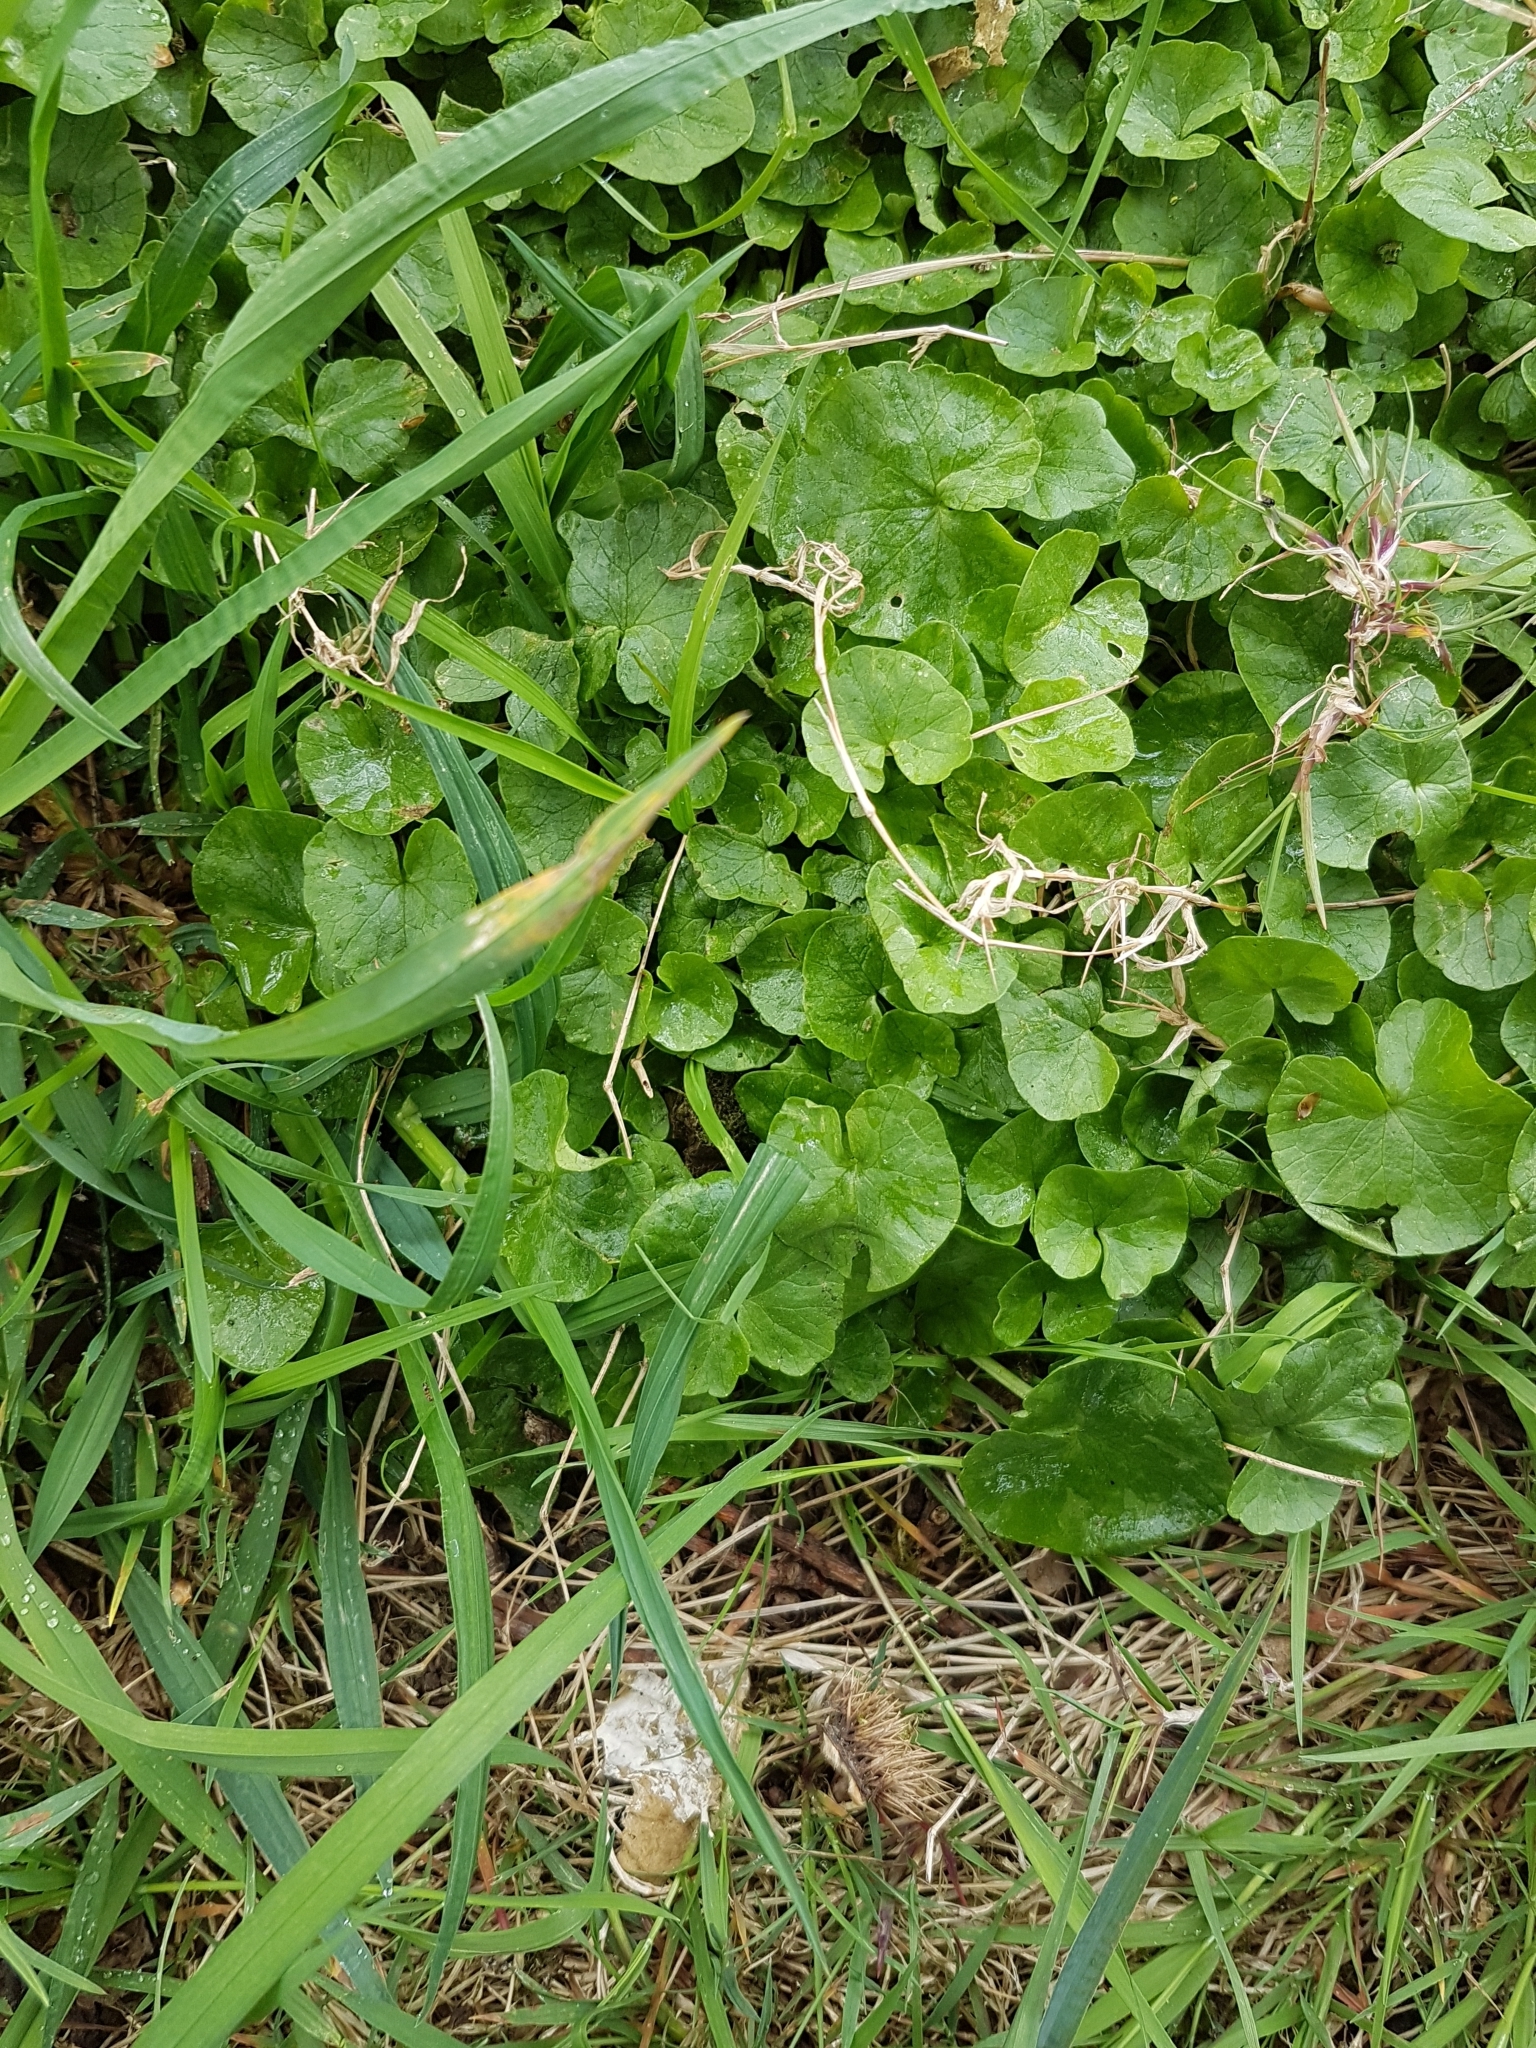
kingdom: Plantae
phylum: Tracheophyta
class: Magnoliopsida
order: Ranunculales
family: Ranunculaceae
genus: Ficaria
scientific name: Ficaria verna
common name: Lesser celandine
